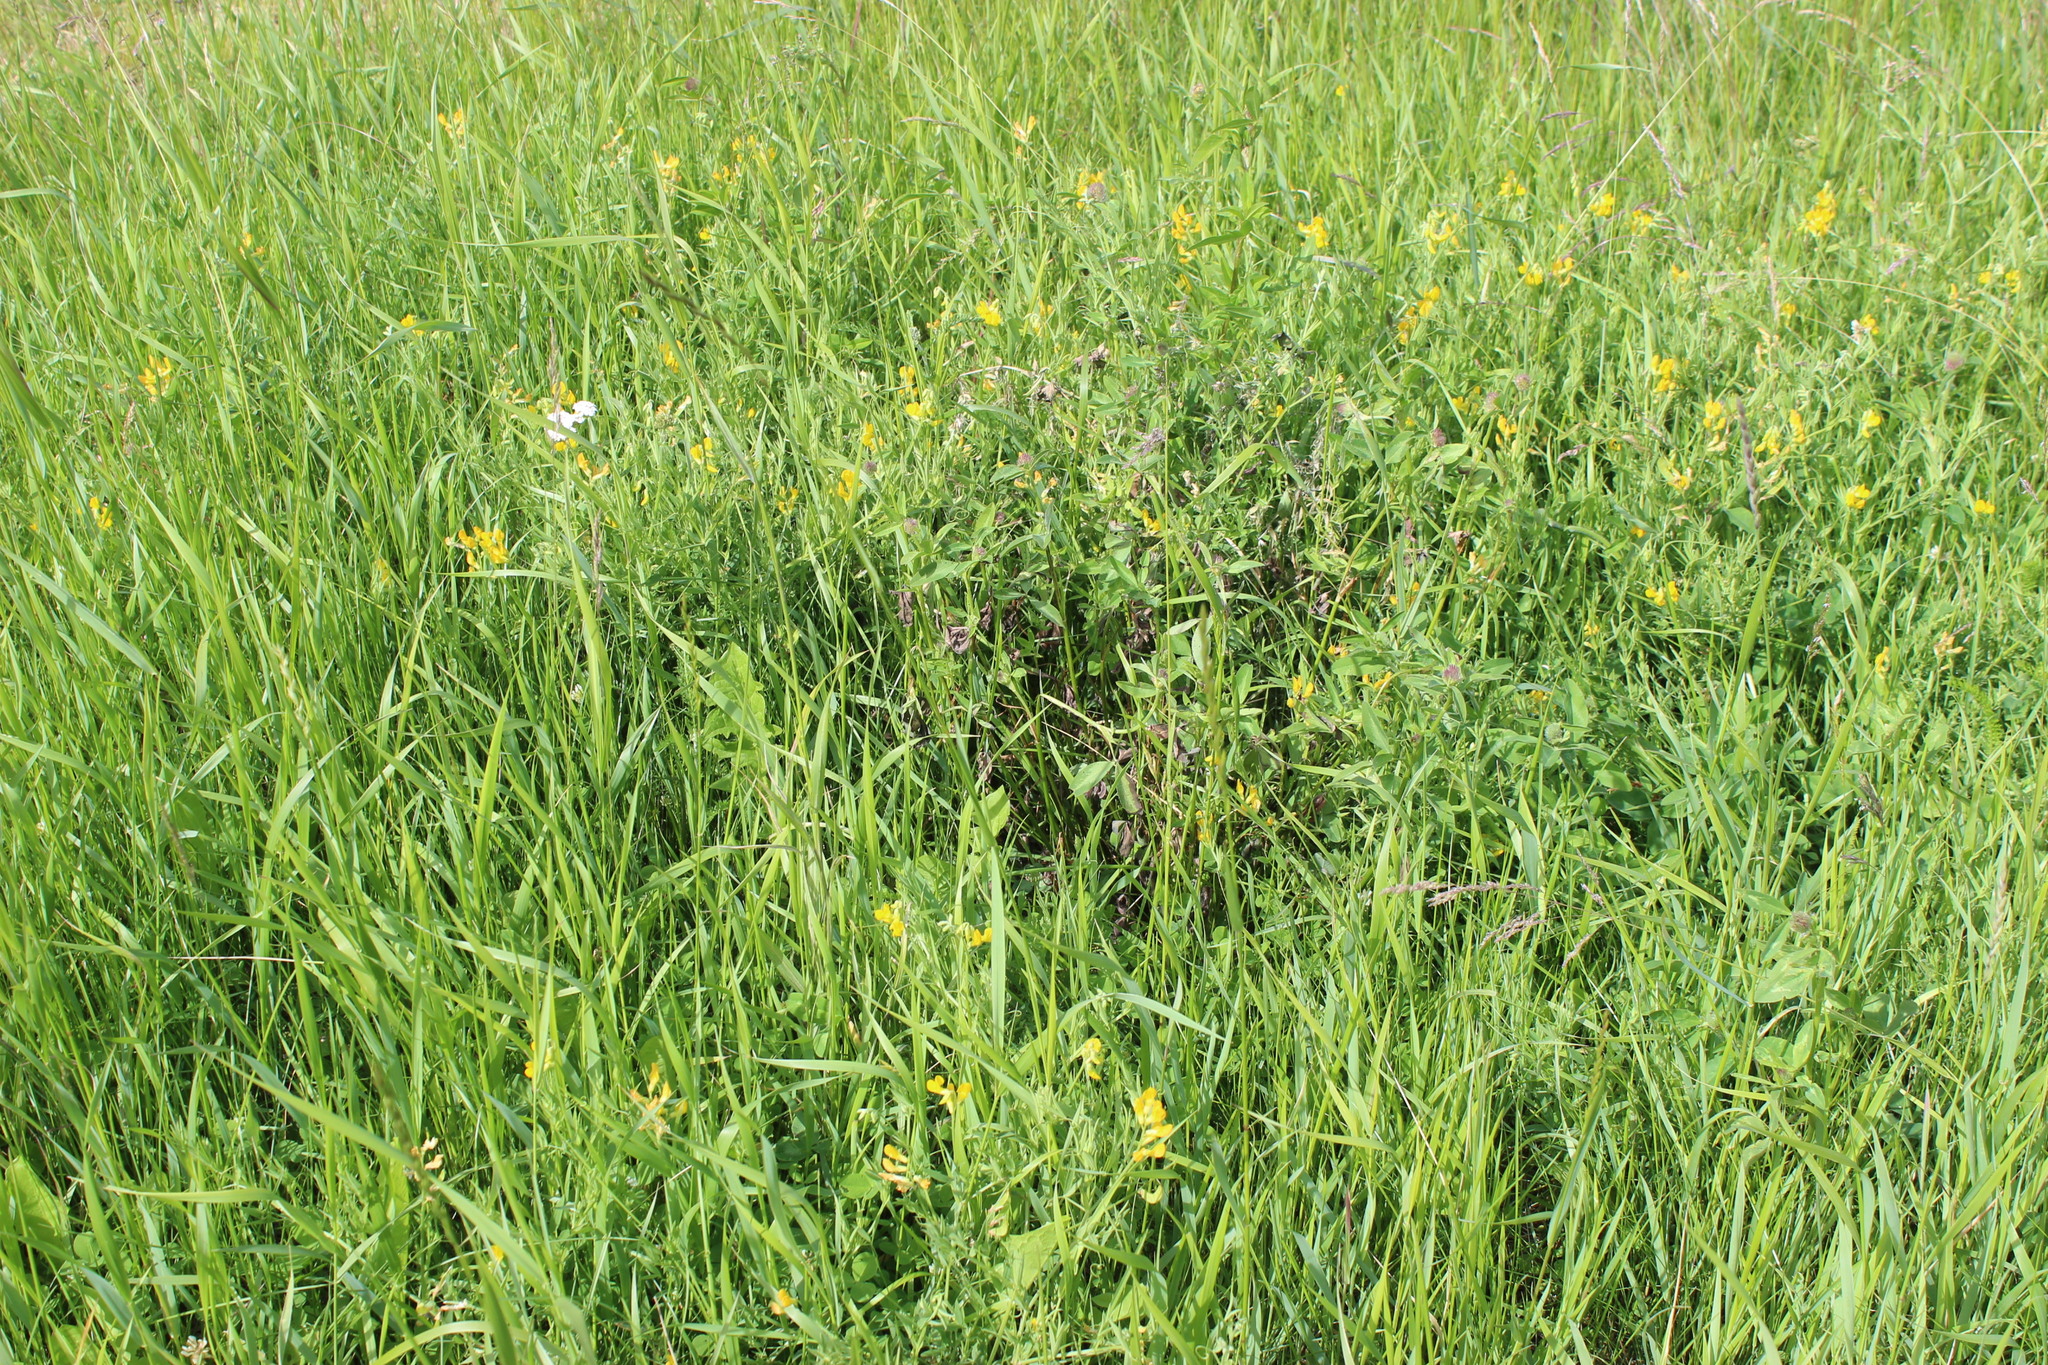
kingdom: Plantae
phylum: Tracheophyta
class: Magnoliopsida
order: Fabales
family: Fabaceae
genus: Lathyrus
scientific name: Lathyrus pratensis
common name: Meadow vetchling
